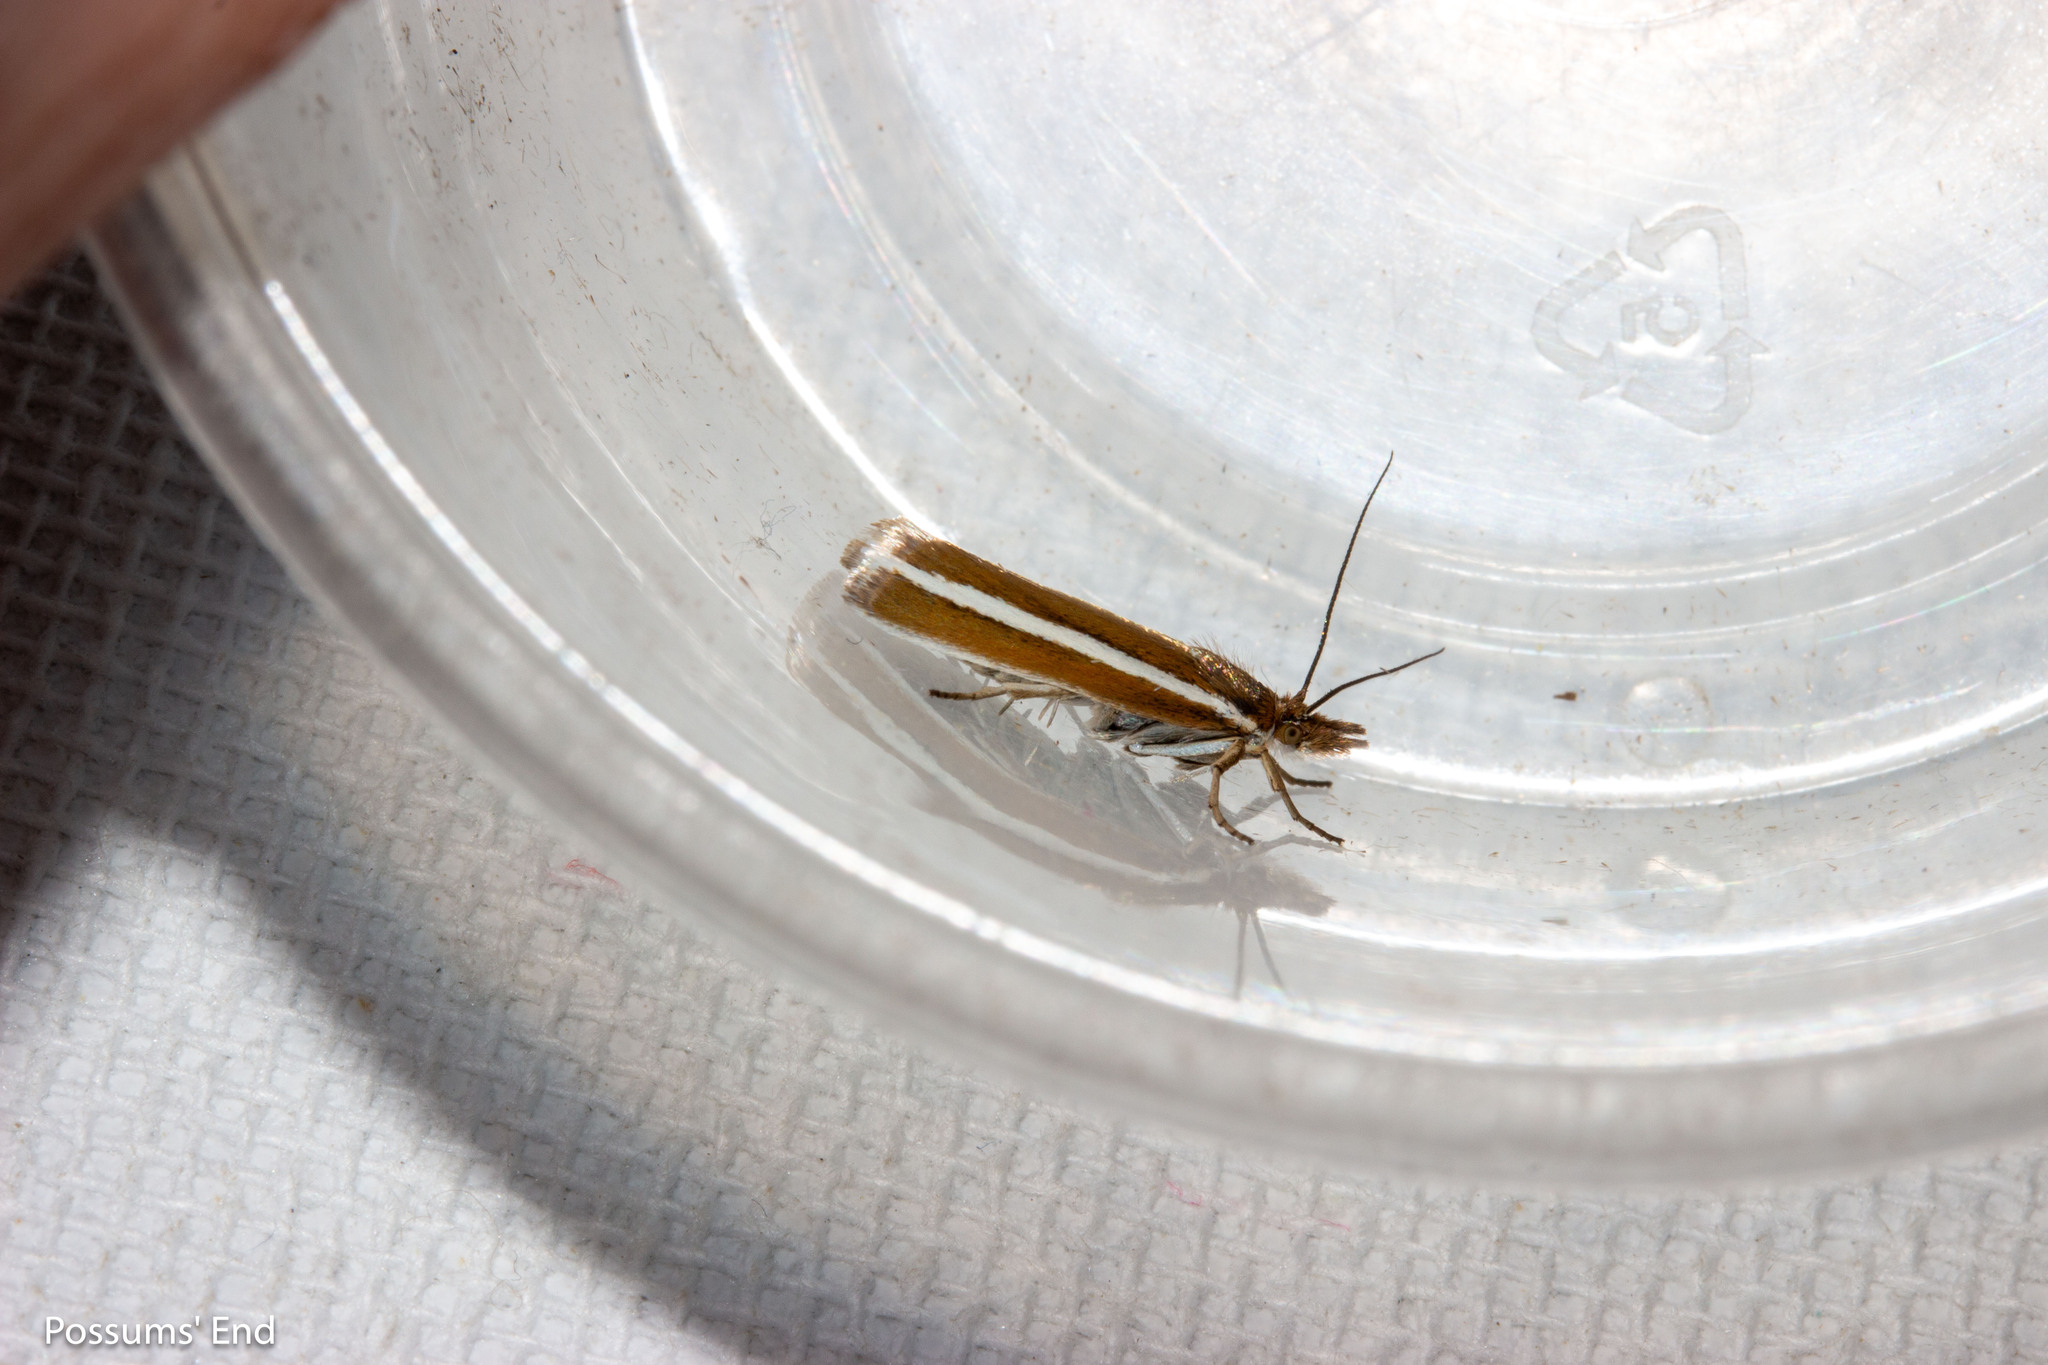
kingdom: Animalia
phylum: Arthropoda
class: Insecta
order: Lepidoptera
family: Crambidae
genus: Orocrambus
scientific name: Orocrambus aethonellus
